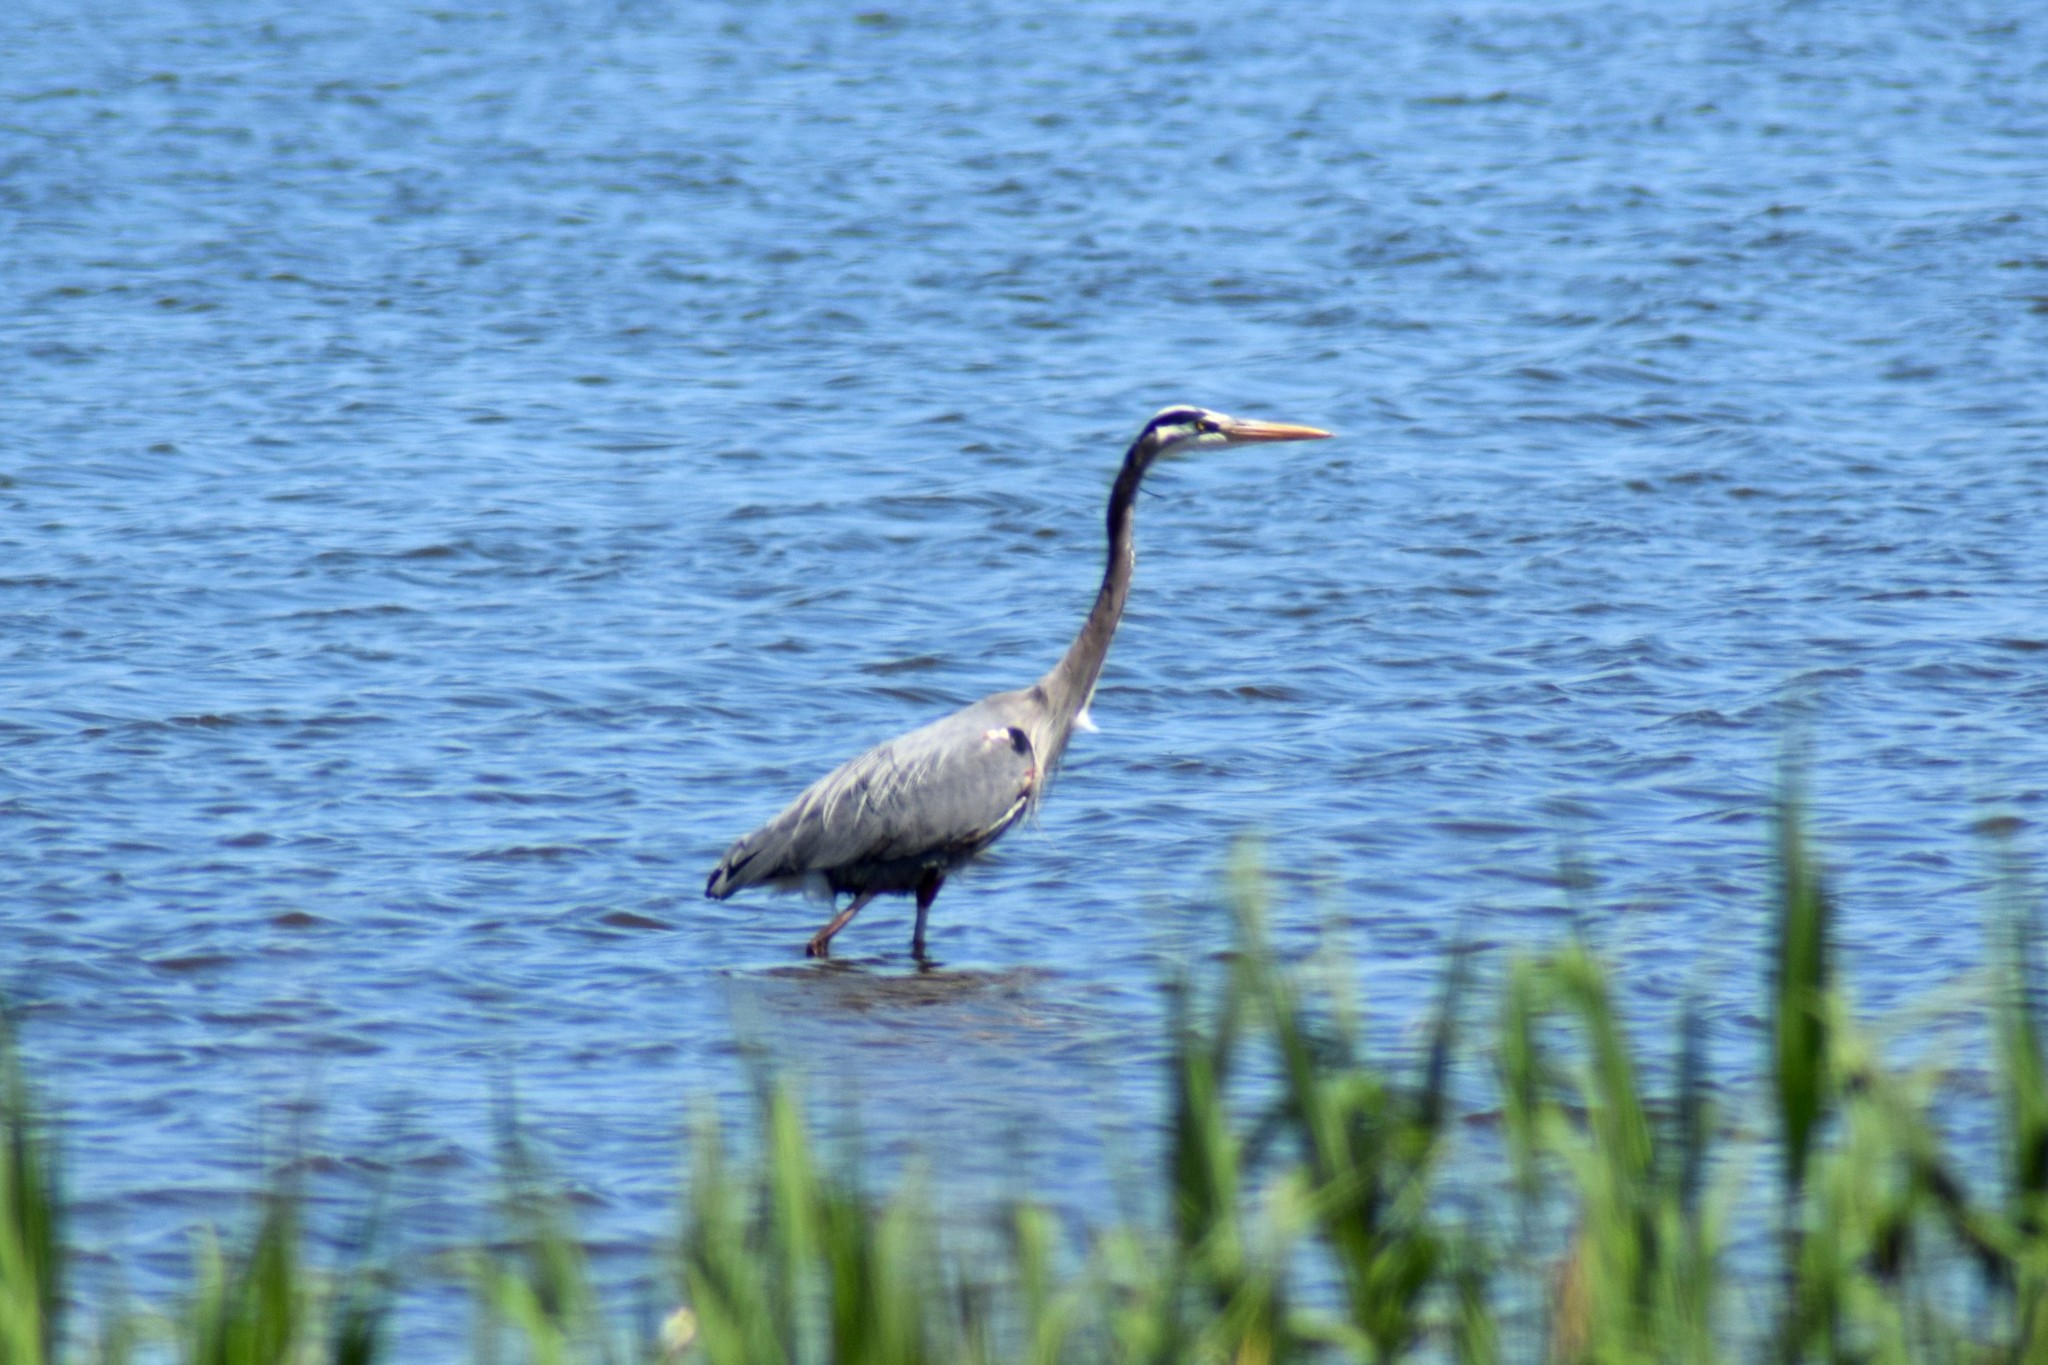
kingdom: Animalia
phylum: Chordata
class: Aves
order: Pelecaniformes
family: Ardeidae
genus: Ardea
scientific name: Ardea herodias
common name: Great blue heron
